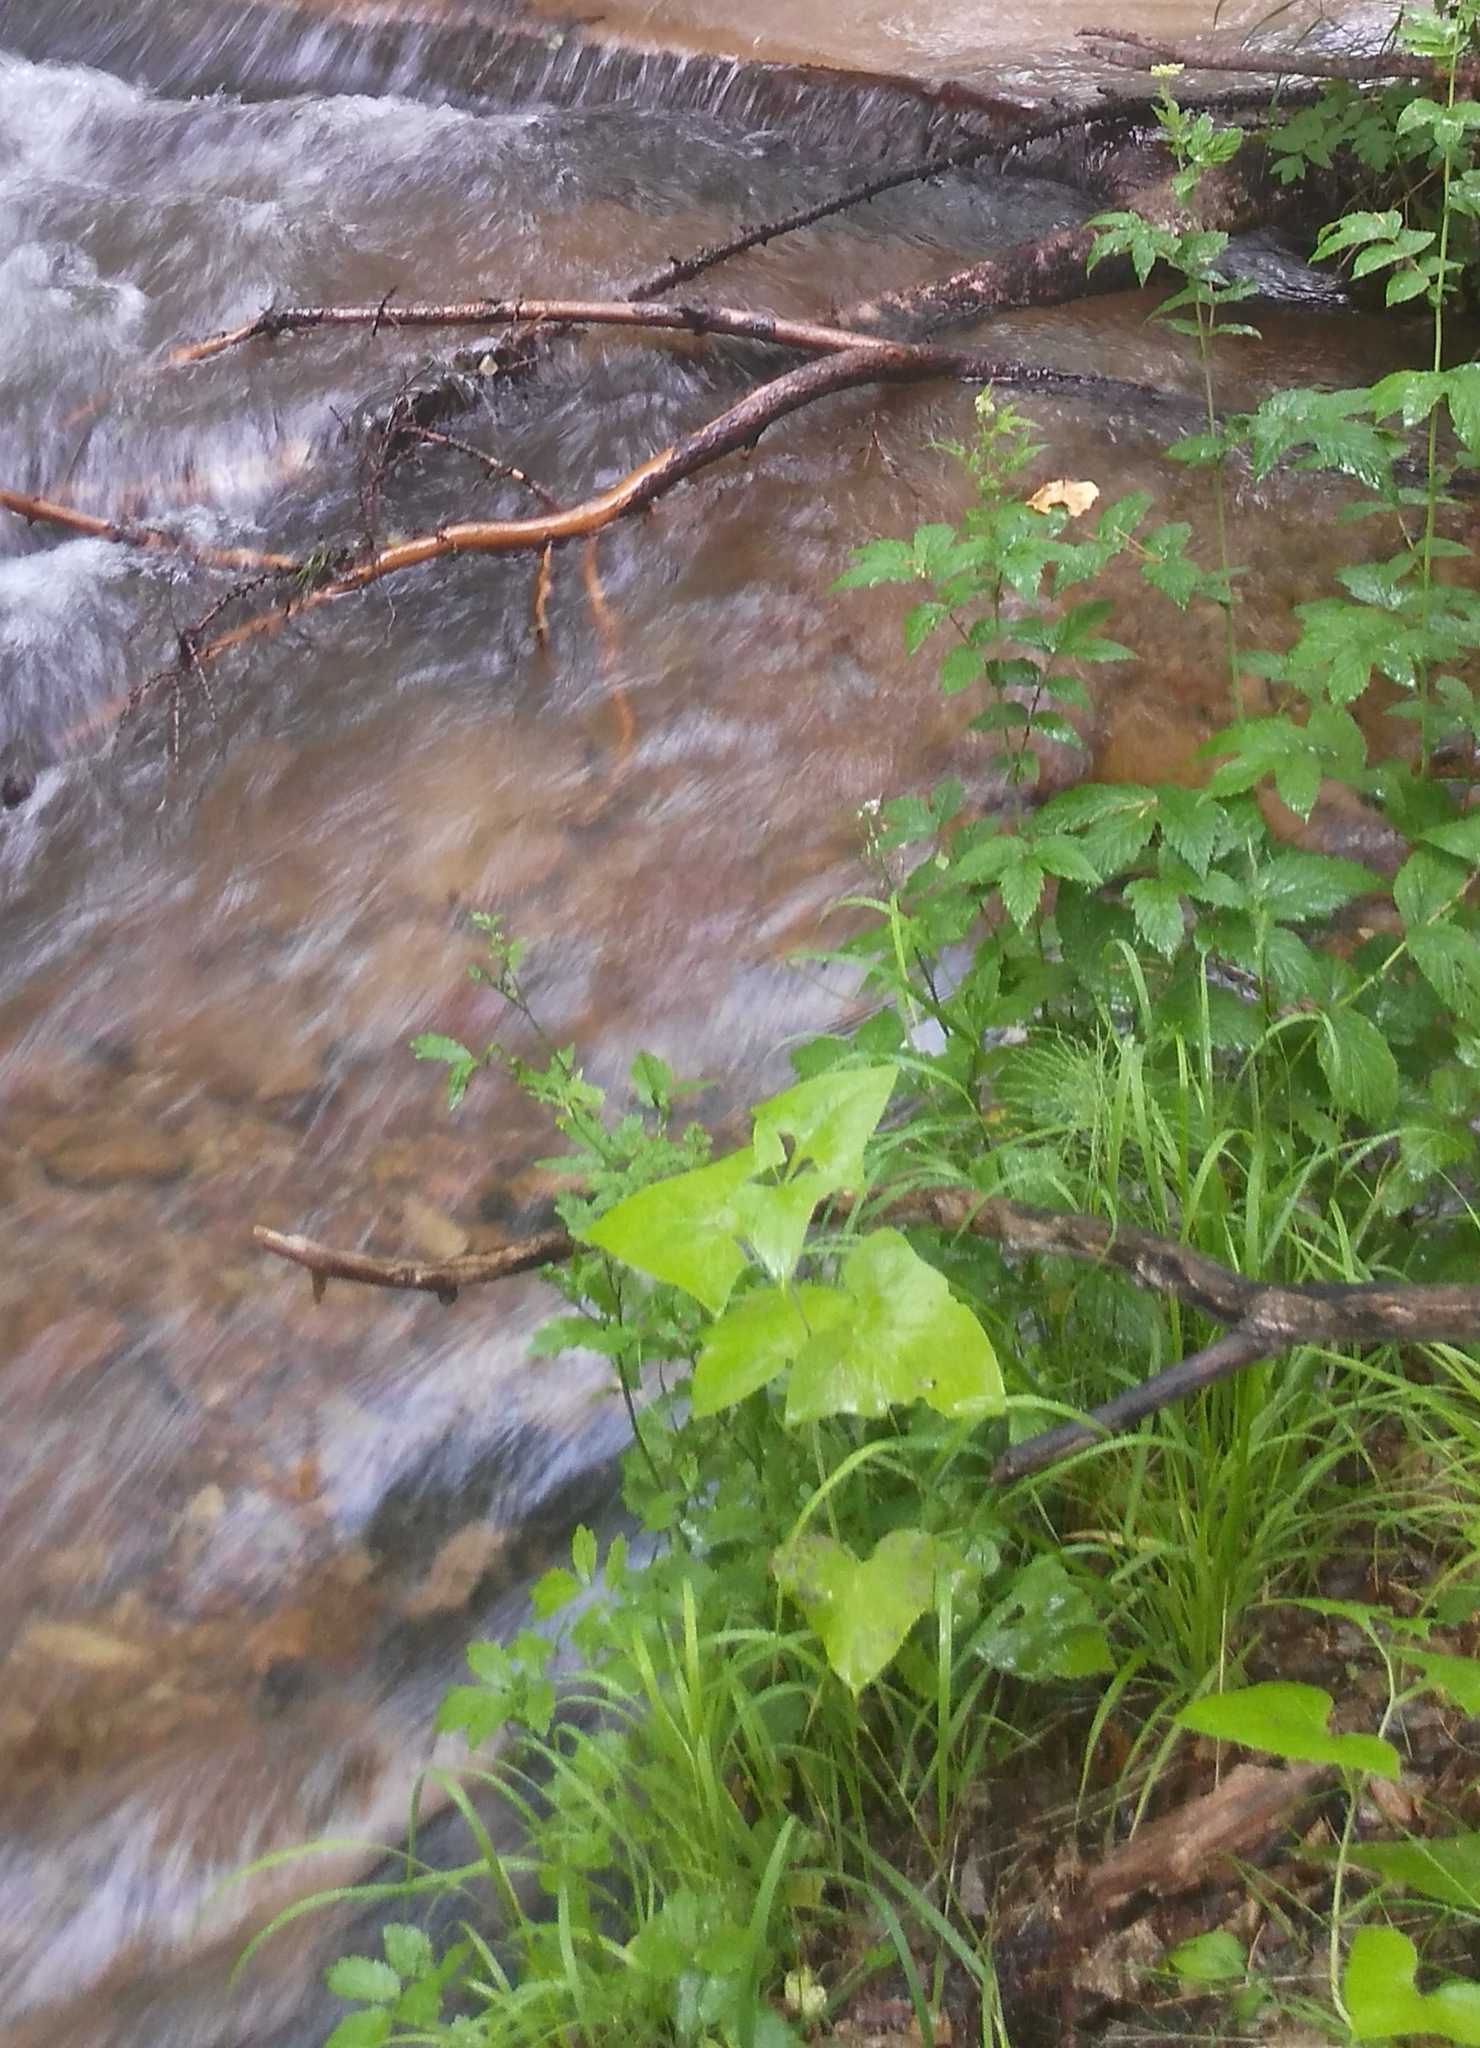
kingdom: Plantae
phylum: Tracheophyta
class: Magnoliopsida
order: Asterales
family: Asteraceae
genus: Parasenecio
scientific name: Parasenecio hastatus
